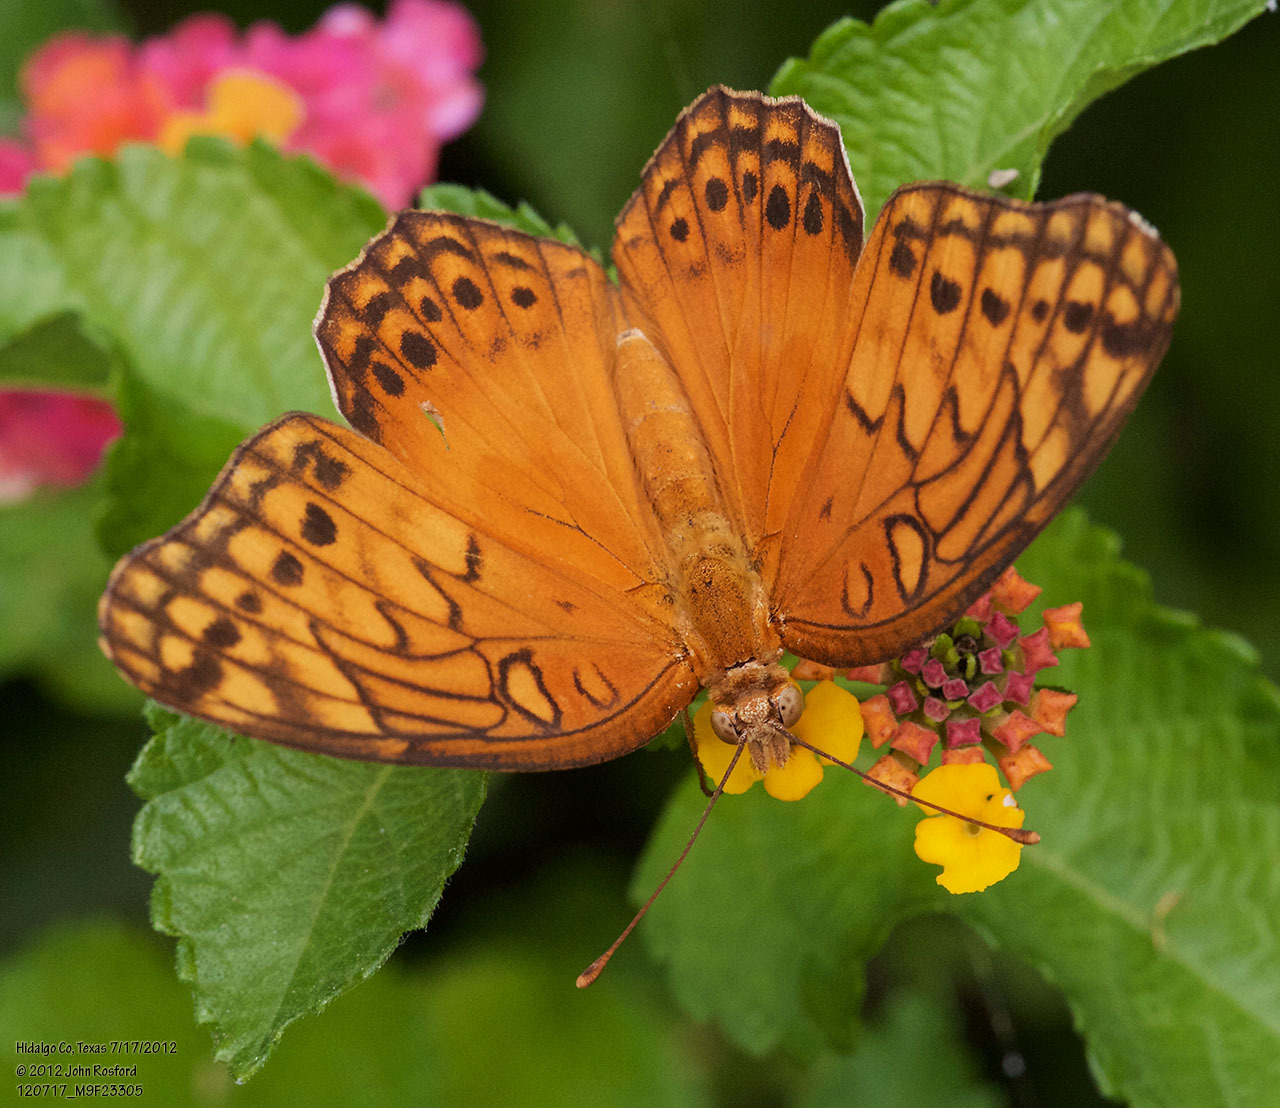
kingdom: Animalia
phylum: Arthropoda
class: Insecta
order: Lepidoptera
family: Nymphalidae
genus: Euptoieta
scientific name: Euptoieta hegesia
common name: Mexican fritillary
